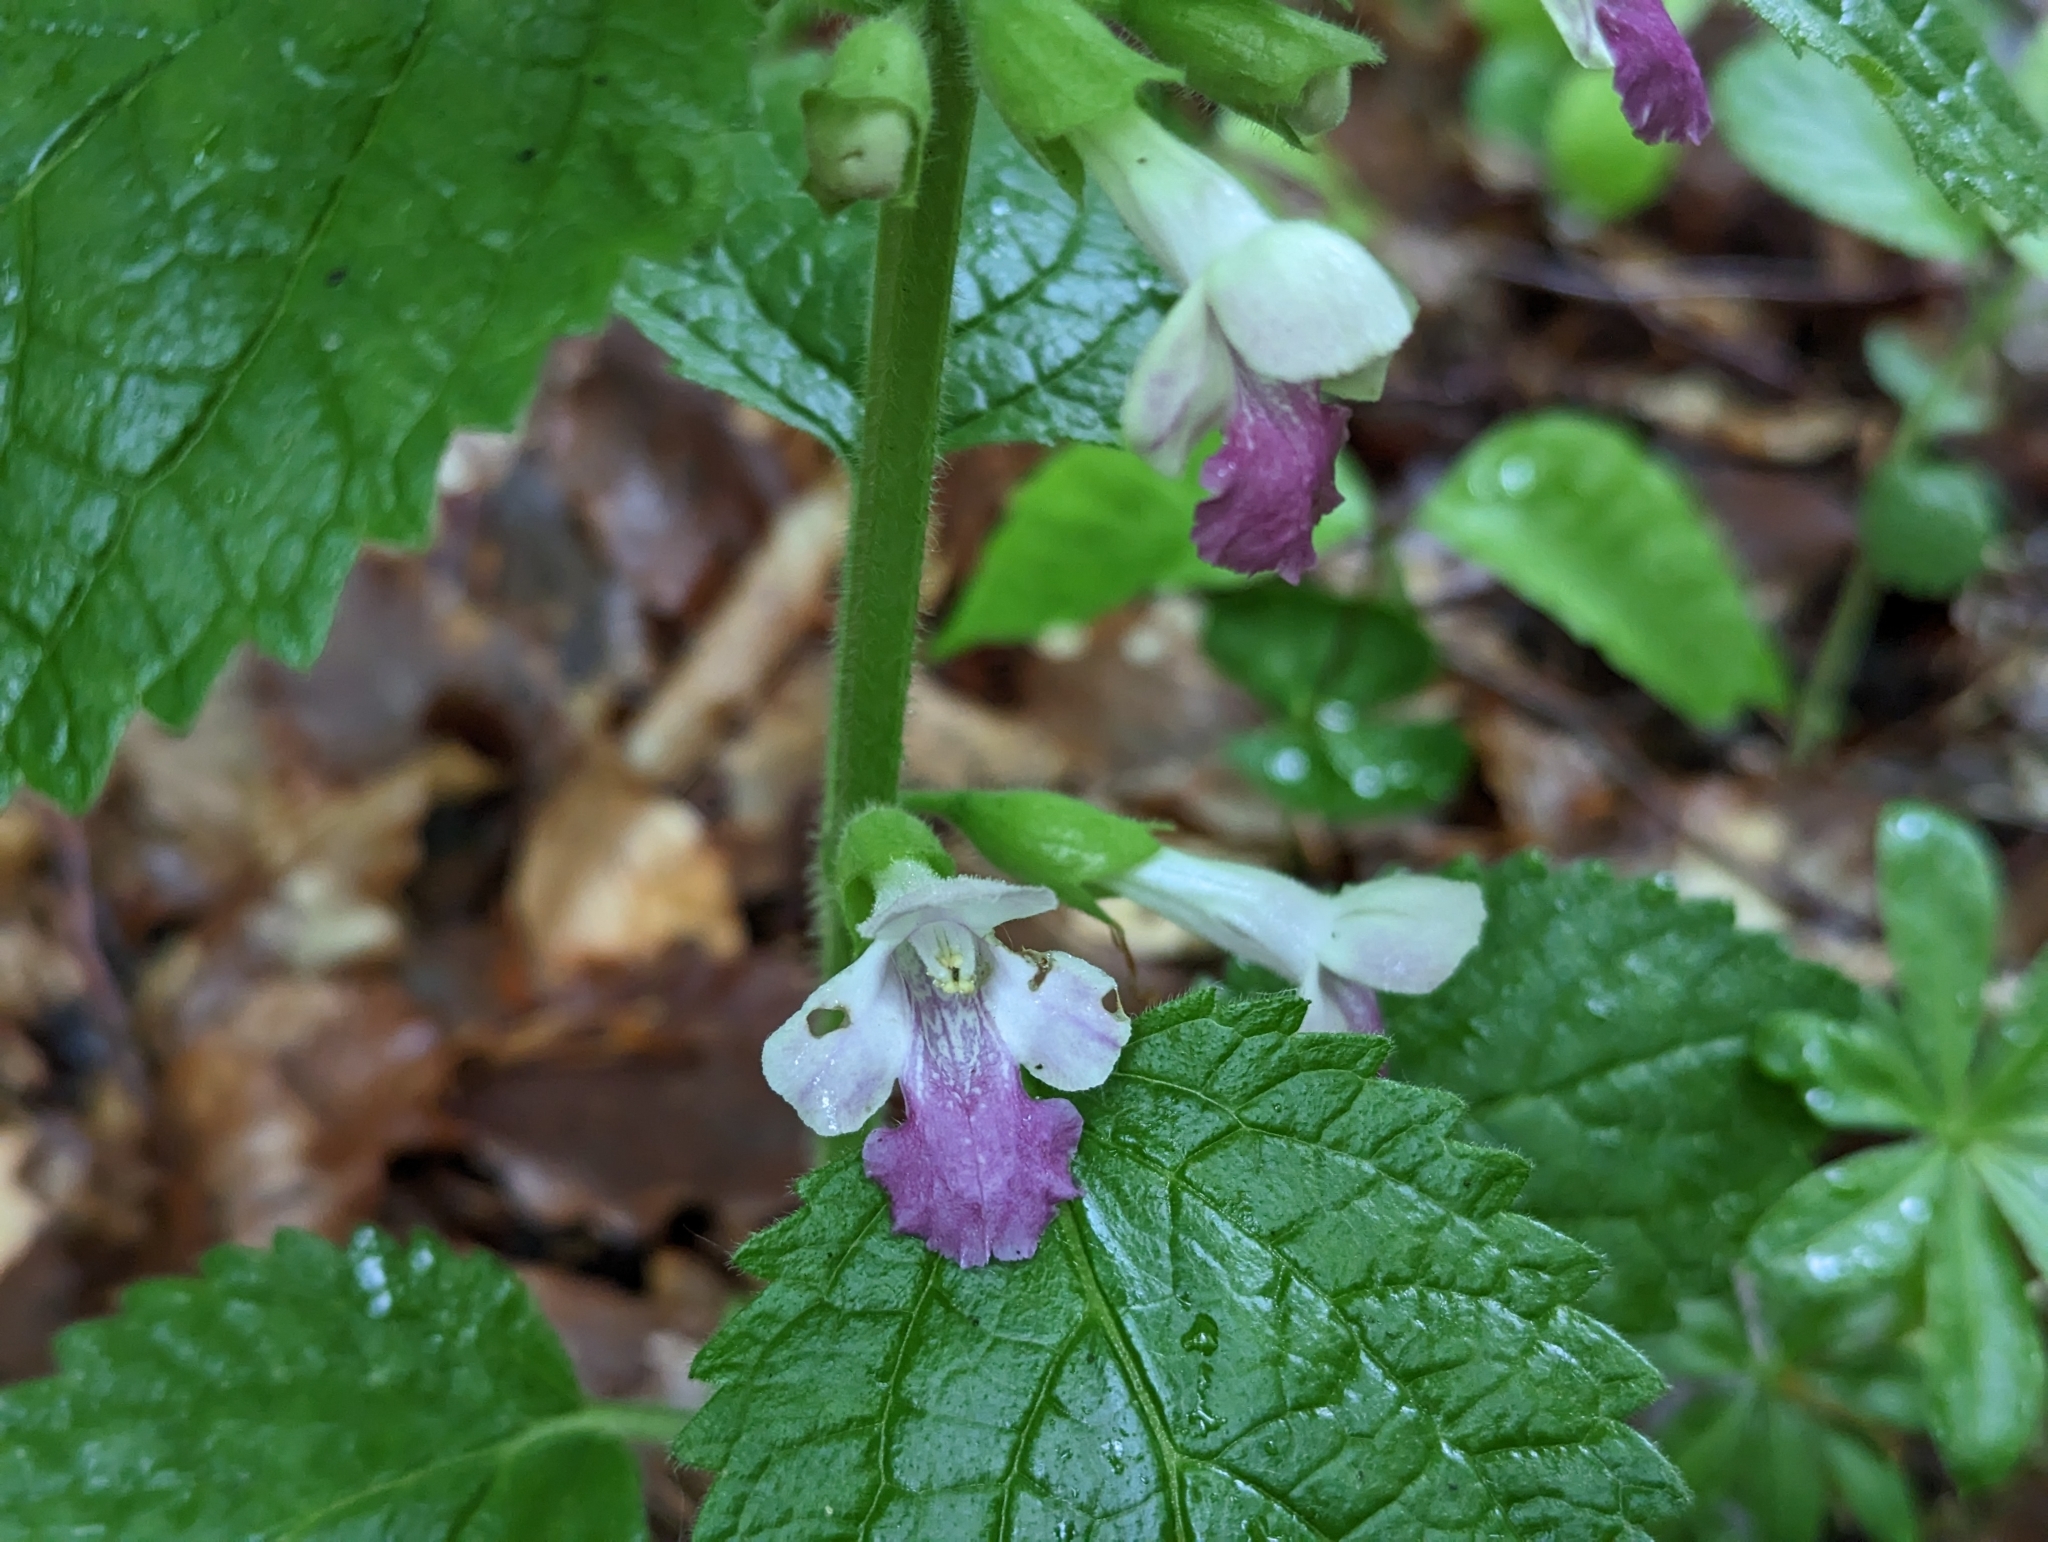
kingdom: Plantae
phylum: Tracheophyta
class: Magnoliopsida
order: Lamiales
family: Lamiaceae
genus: Melittis
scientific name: Melittis melissophyllum
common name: Bastard balm
